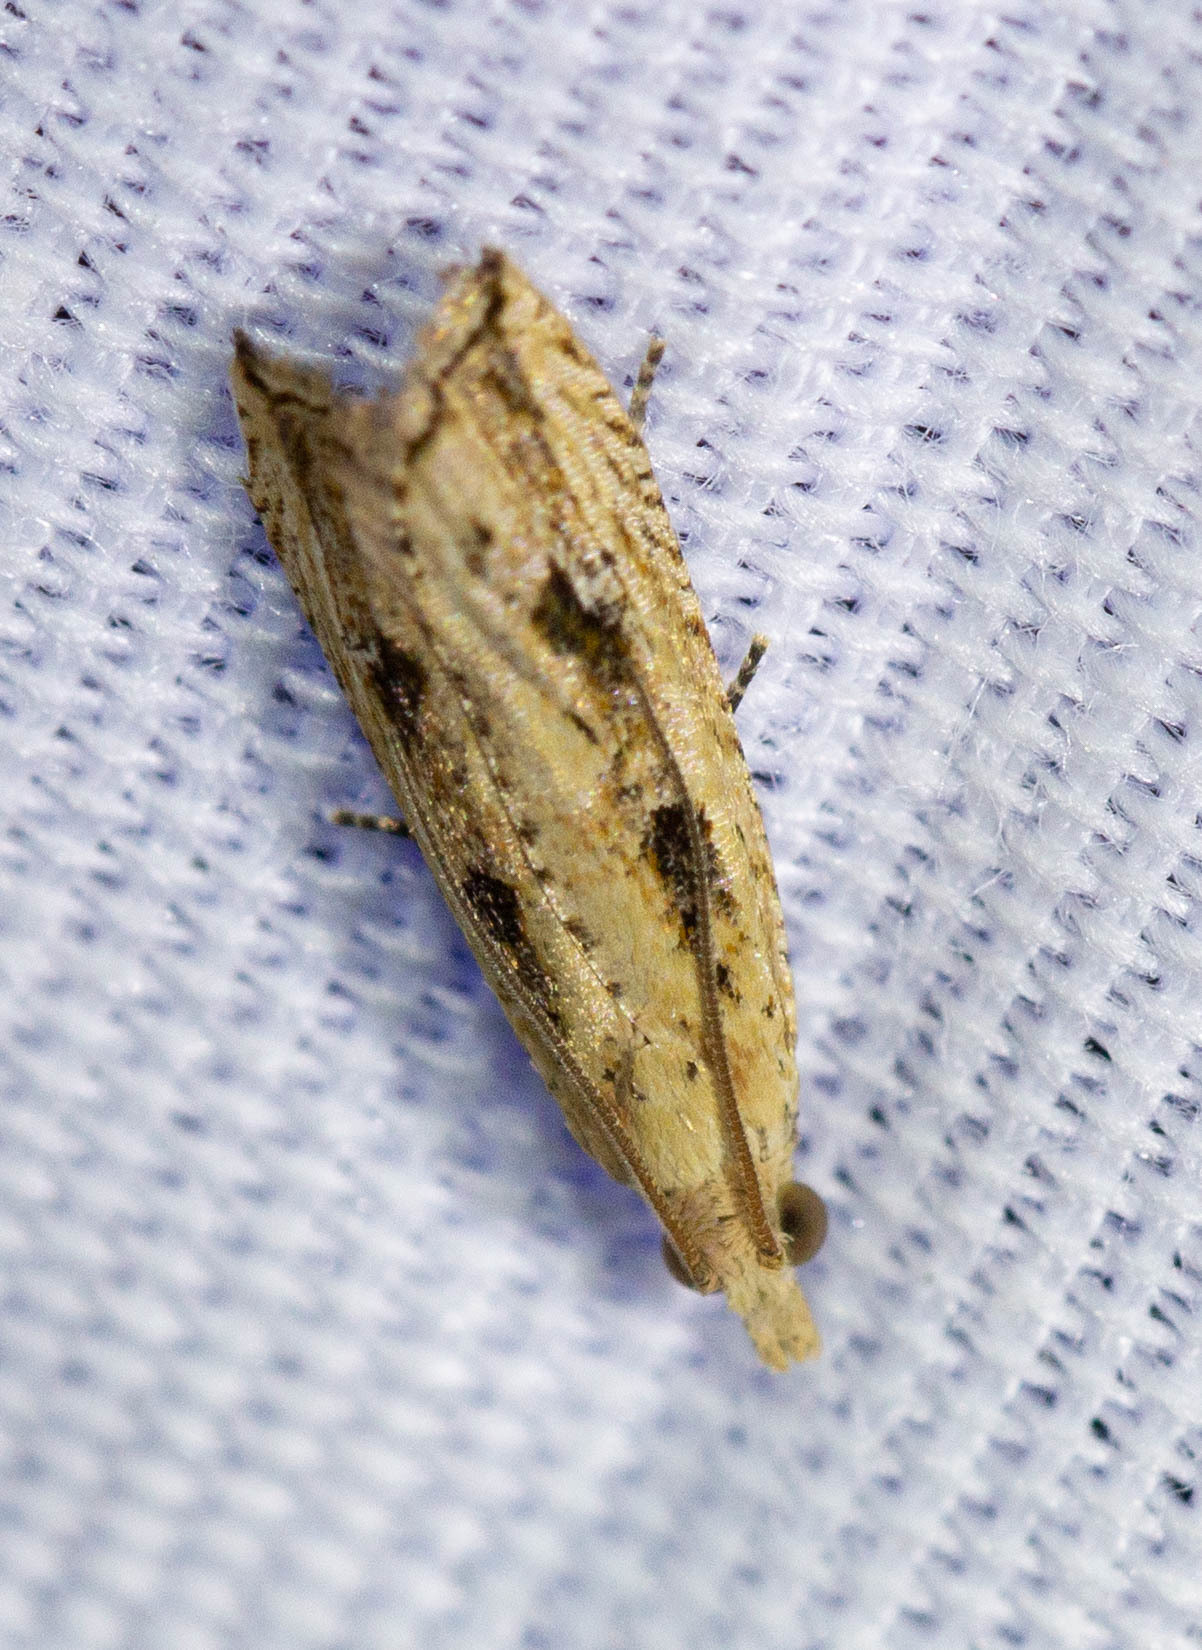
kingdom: Animalia
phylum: Arthropoda
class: Insecta
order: Lepidoptera
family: Tortricidae
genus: Bactra
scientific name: Bactra verutana
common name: Javelin moth
